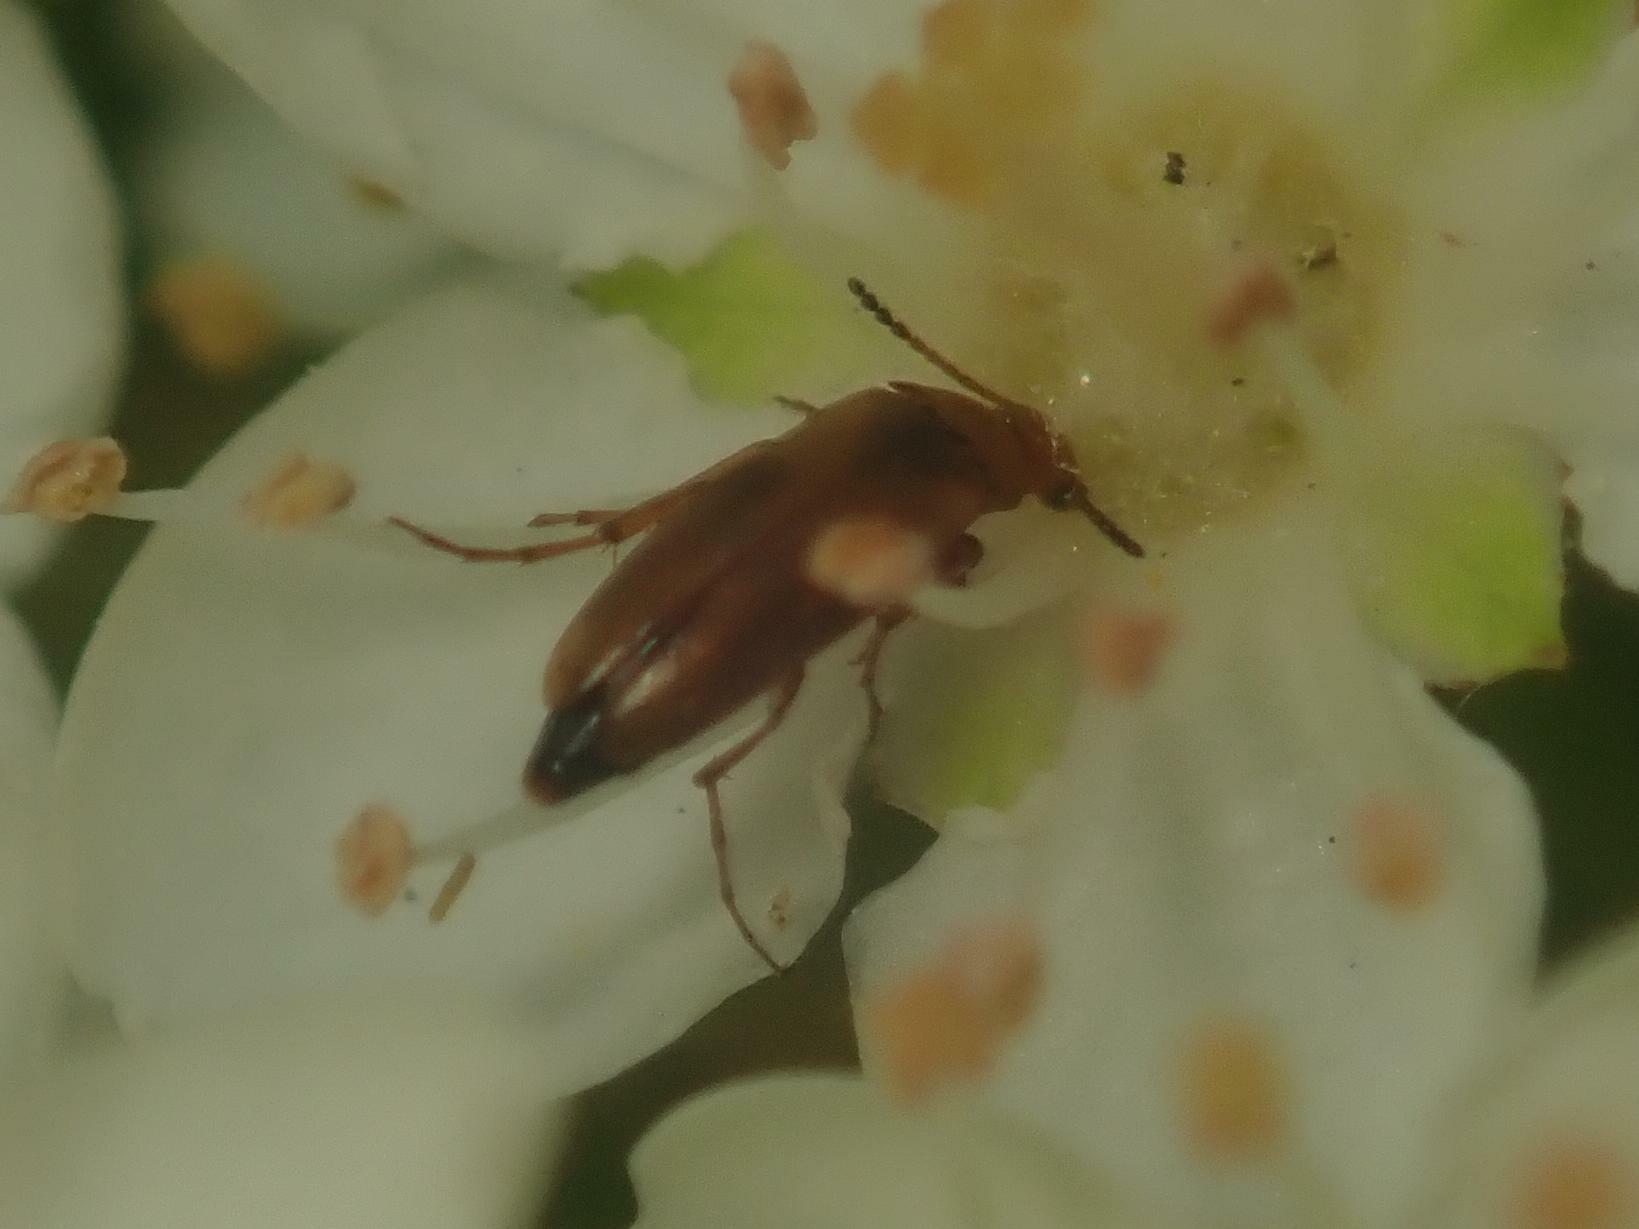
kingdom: Animalia
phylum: Arthropoda
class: Insecta
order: Coleoptera
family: Scraptiidae
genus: Anaspis
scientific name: Anaspis maculata
